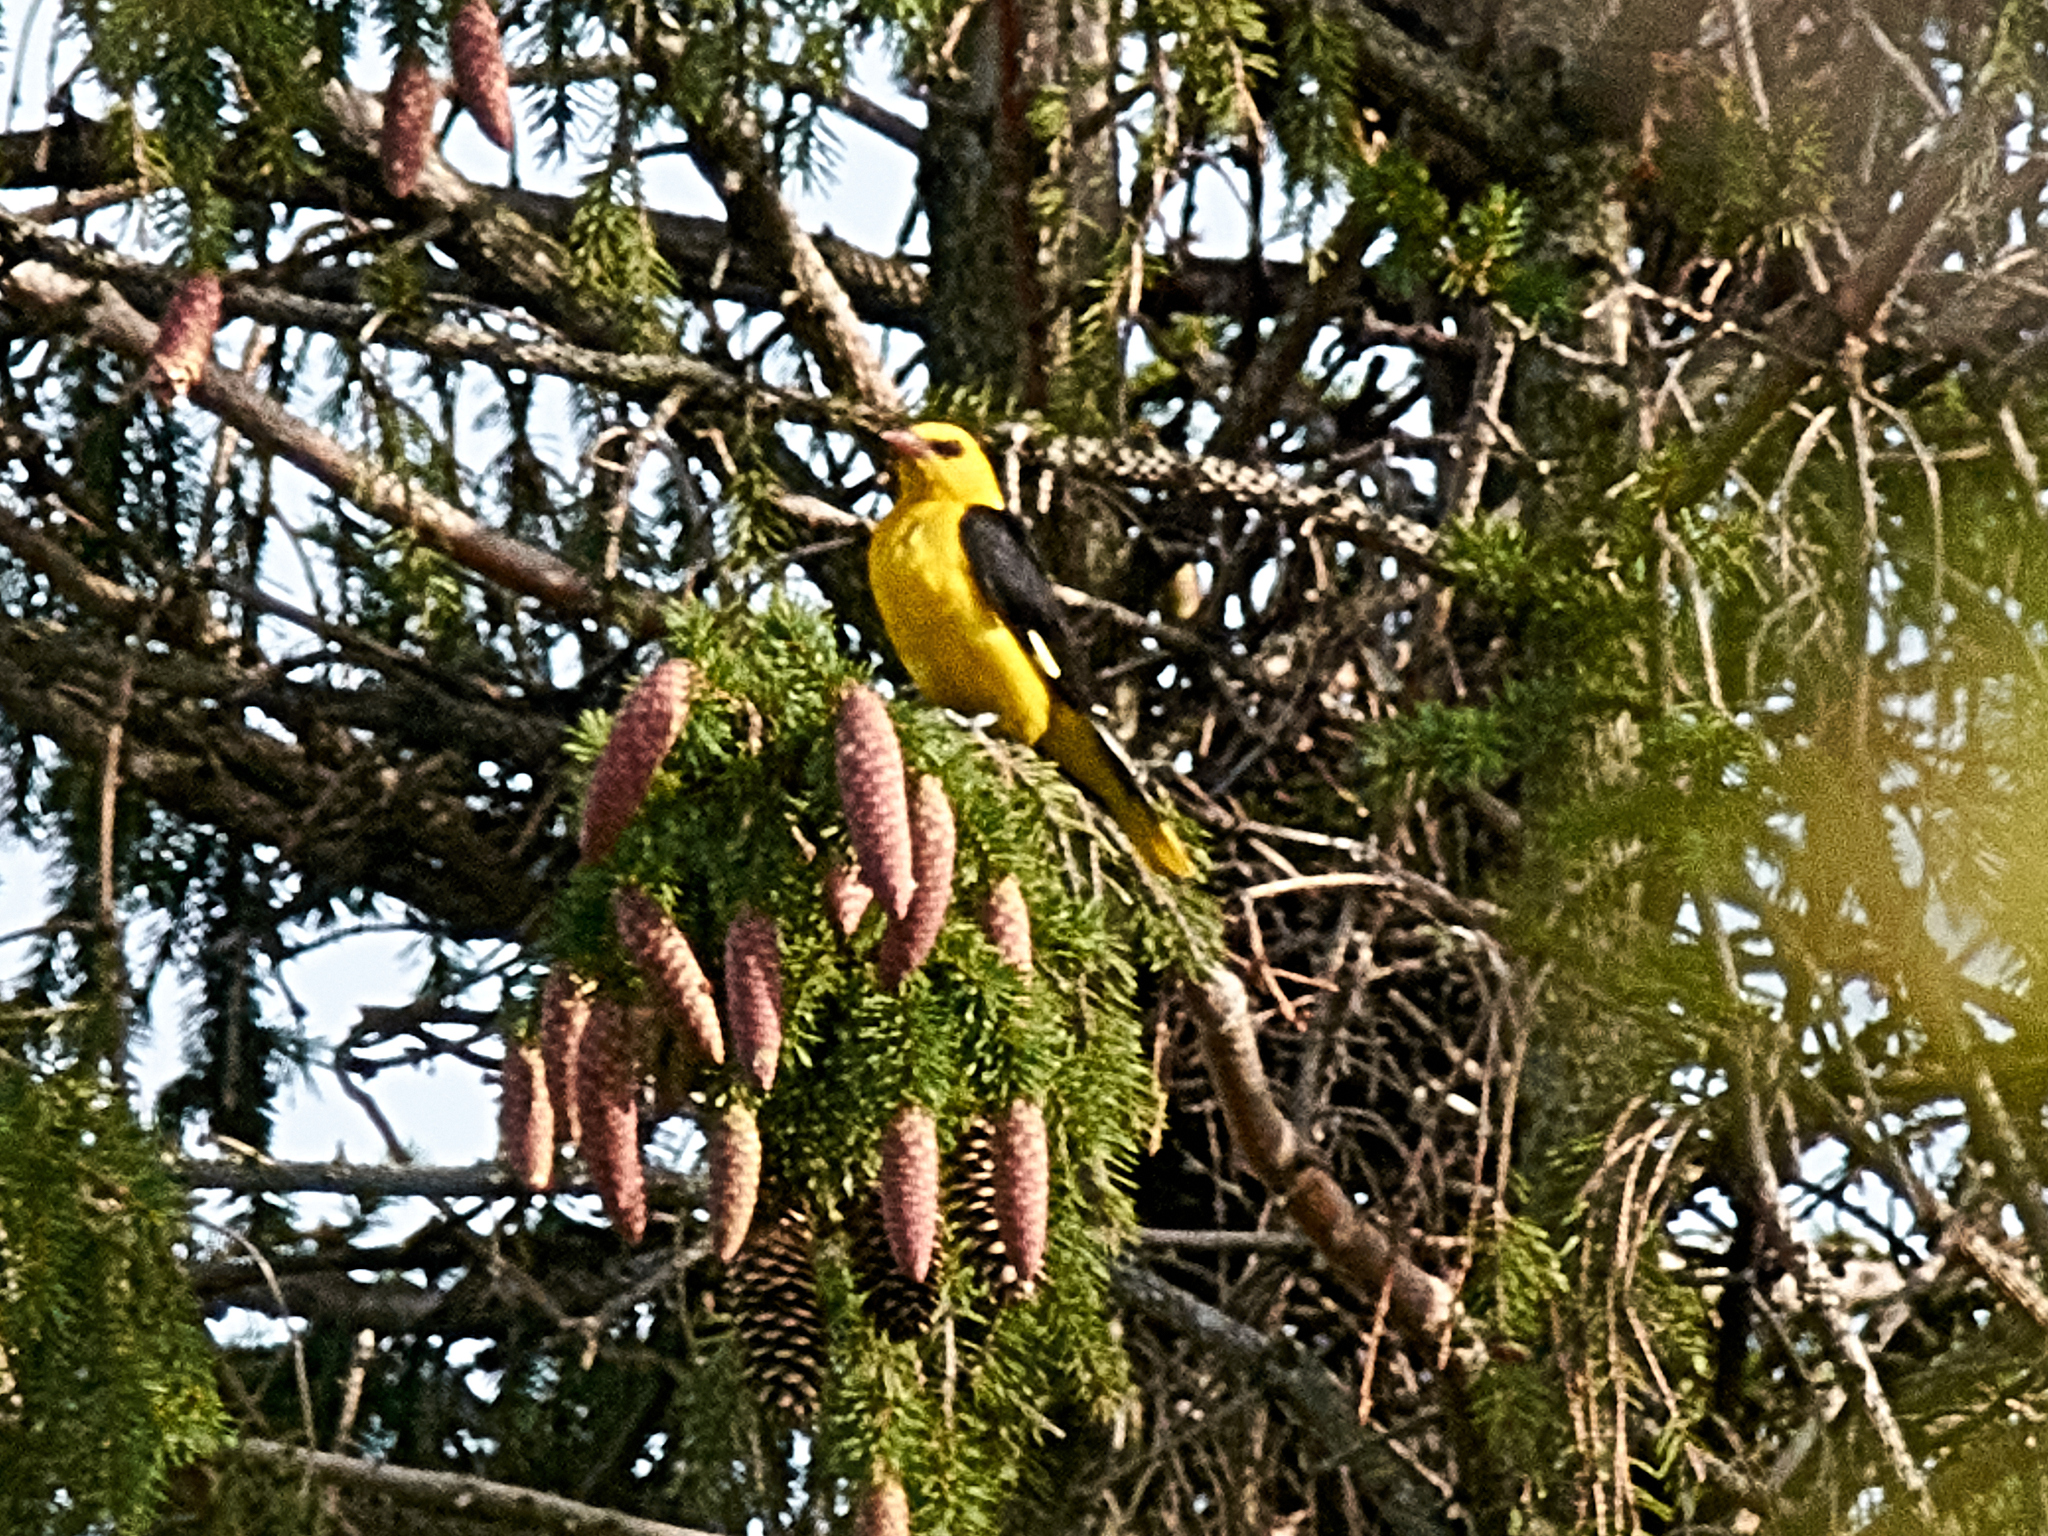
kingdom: Animalia
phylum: Chordata
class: Aves
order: Passeriformes
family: Oriolidae
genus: Oriolus
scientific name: Oriolus oriolus
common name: Eurasian golden oriole
